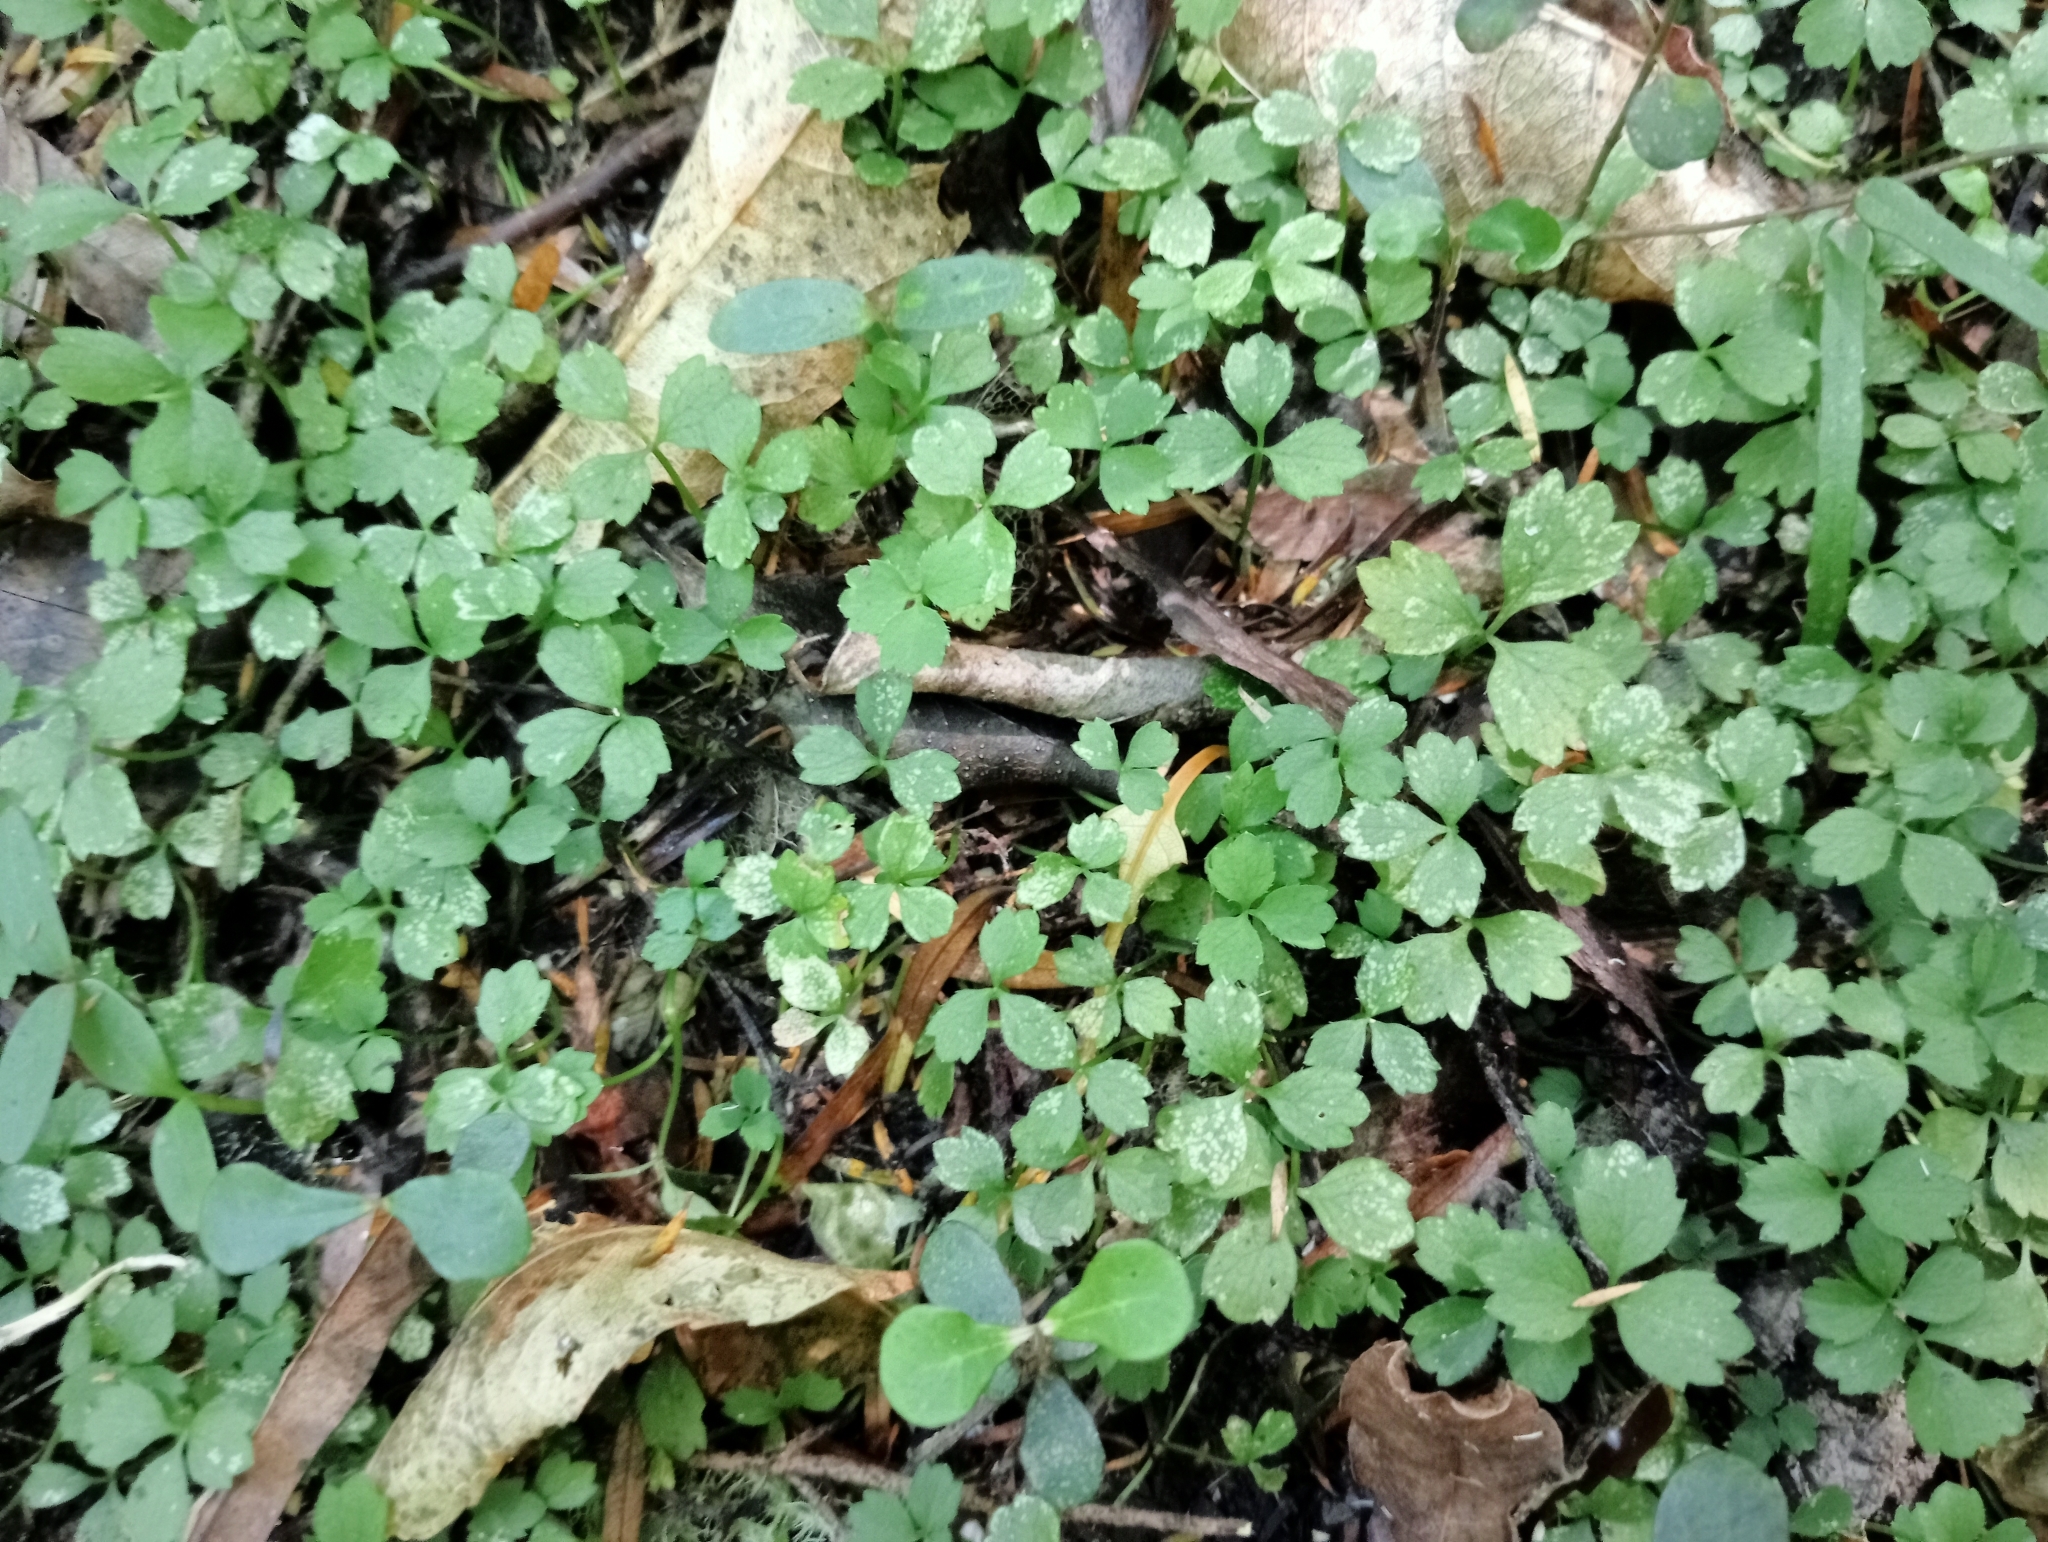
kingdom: Plantae
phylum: Tracheophyta
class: Magnoliopsida
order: Apiales
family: Apiaceae
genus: Azorella
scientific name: Azorella hookeri
